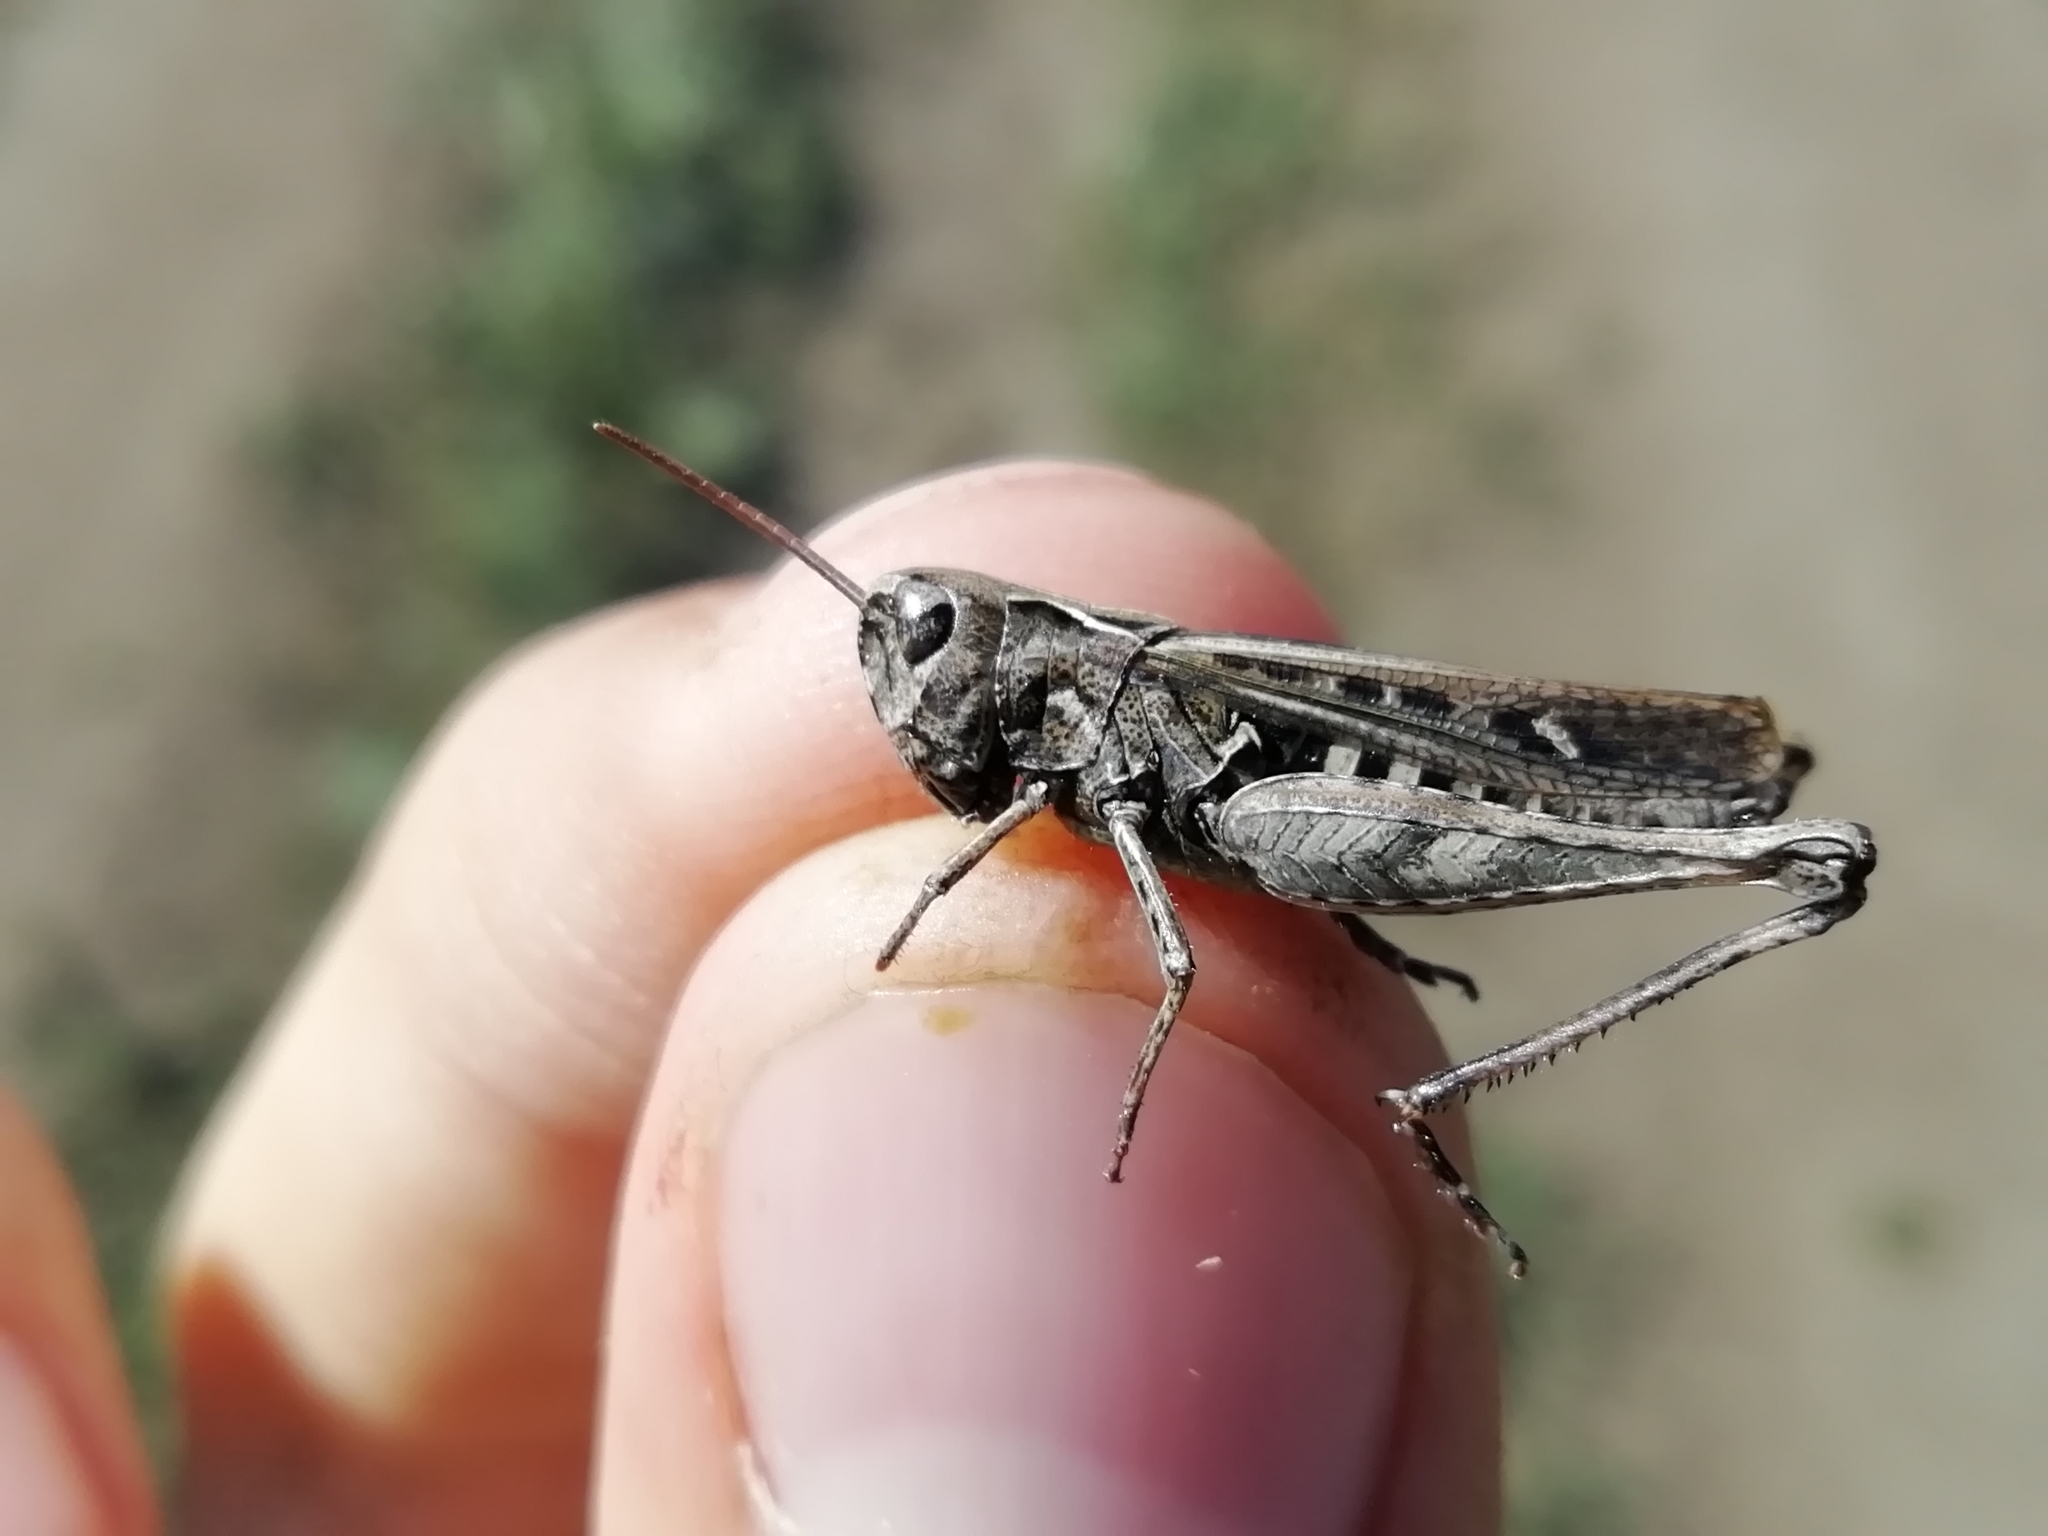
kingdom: Animalia
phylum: Arthropoda
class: Insecta
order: Orthoptera
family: Acrididae
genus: Omocestus
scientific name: Omocestus haemorrhoidalis
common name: Orange-tipped grasshopper
